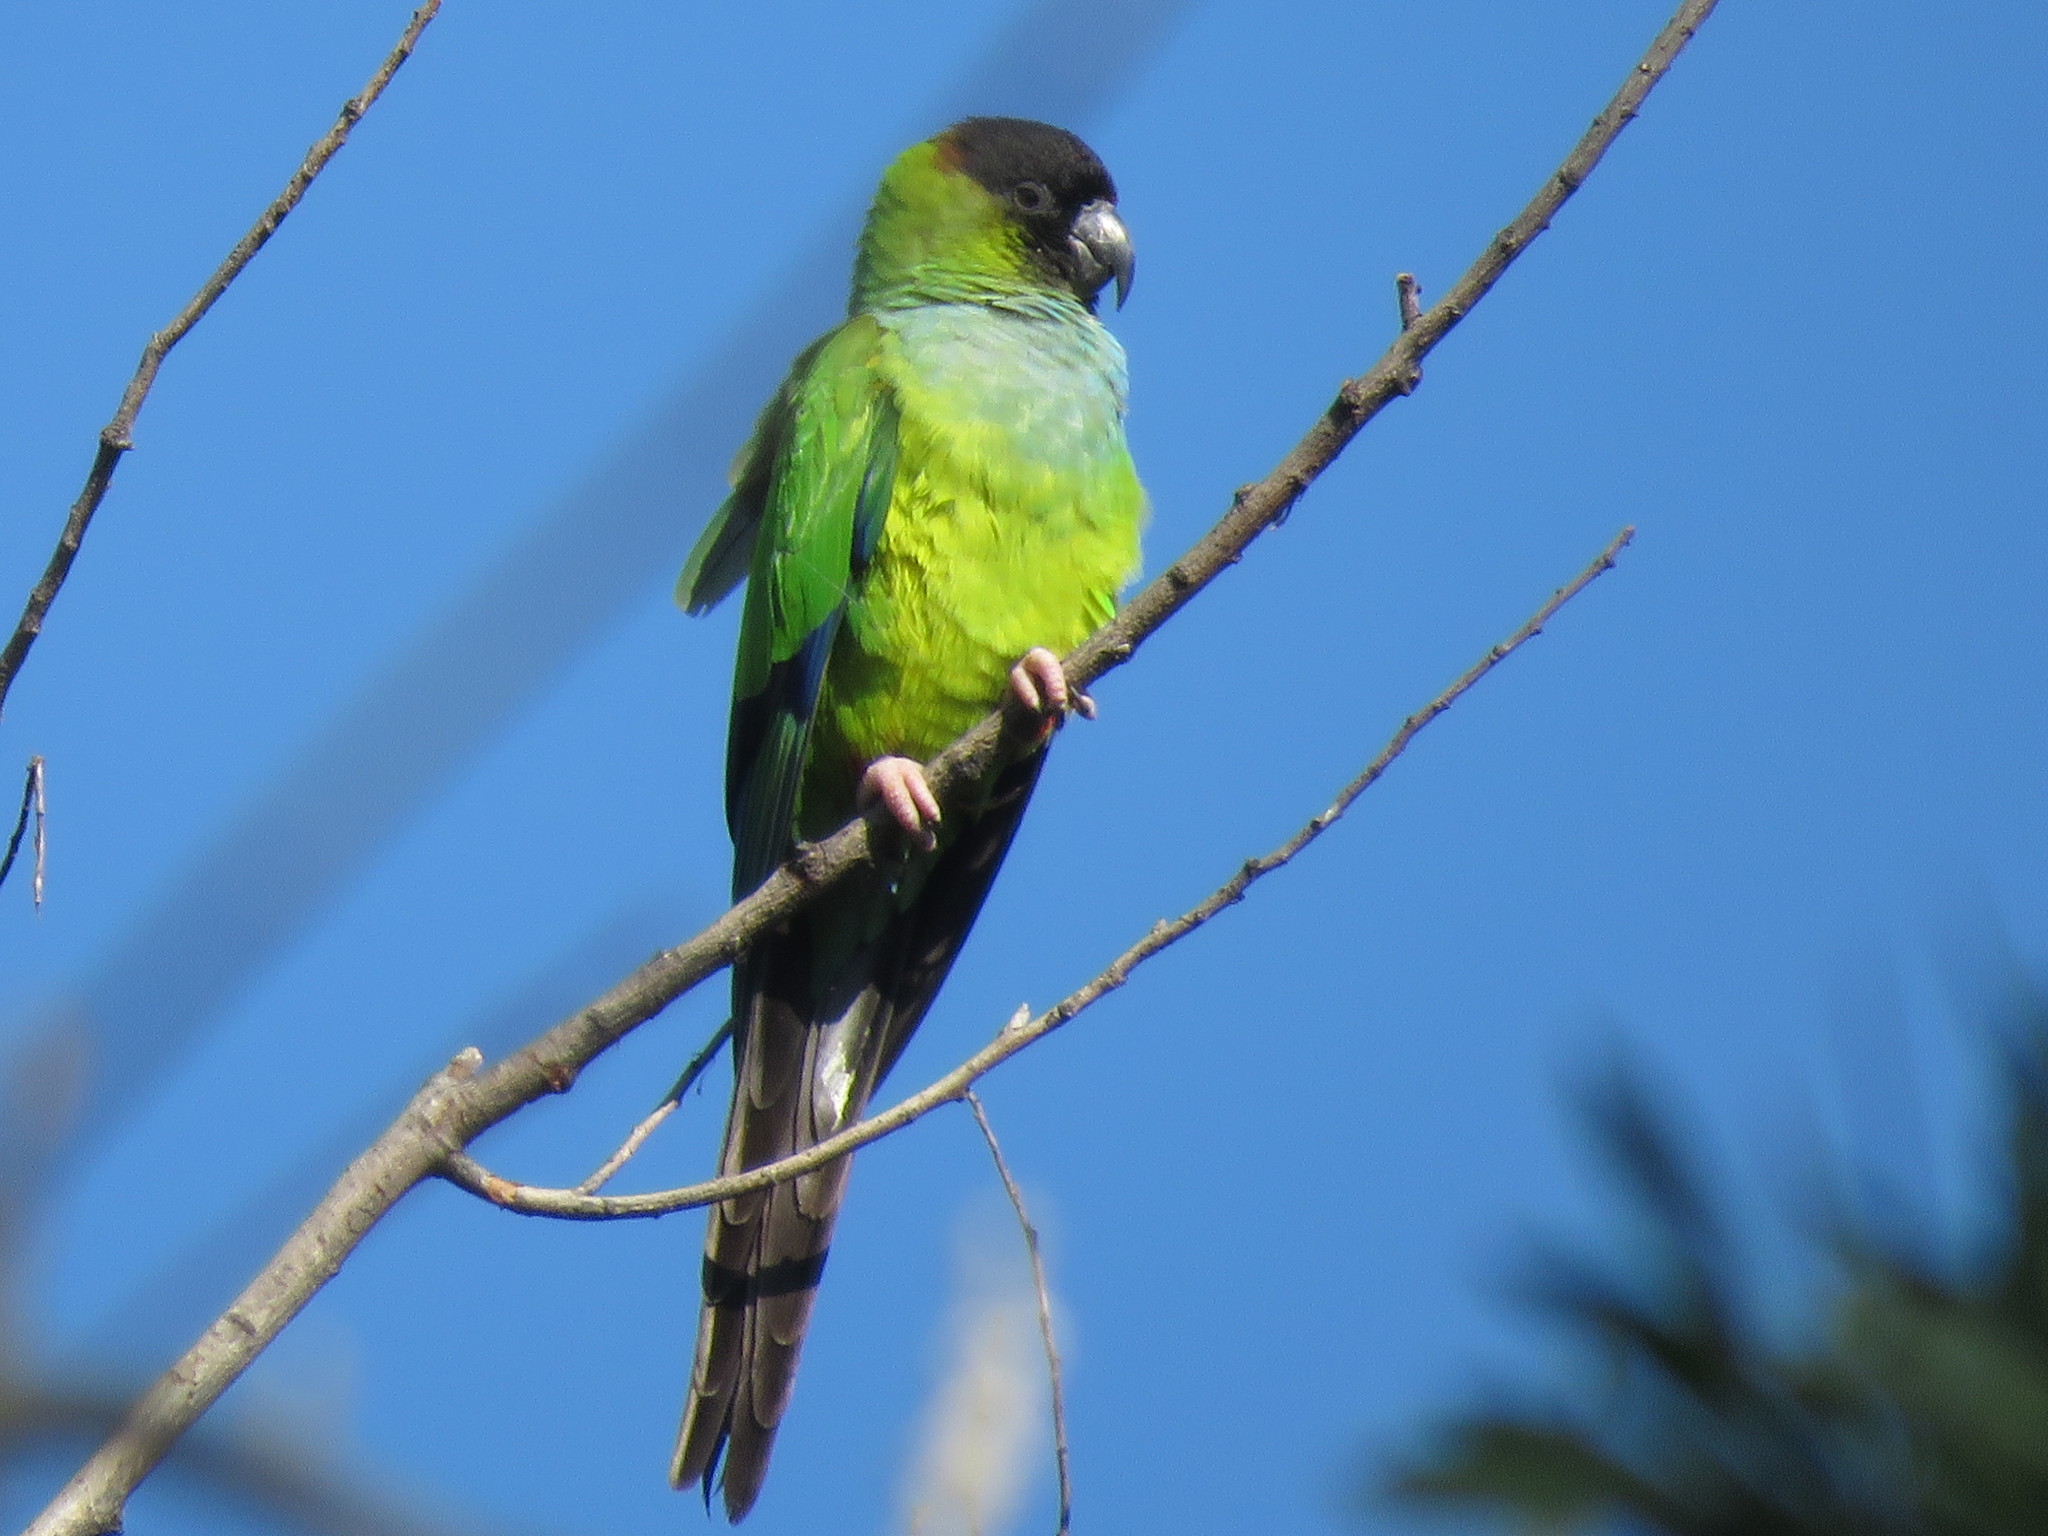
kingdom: Animalia
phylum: Chordata
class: Aves
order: Psittaciformes
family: Psittacidae
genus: Nandayus
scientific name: Nandayus nenday
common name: Nanday parakeet
